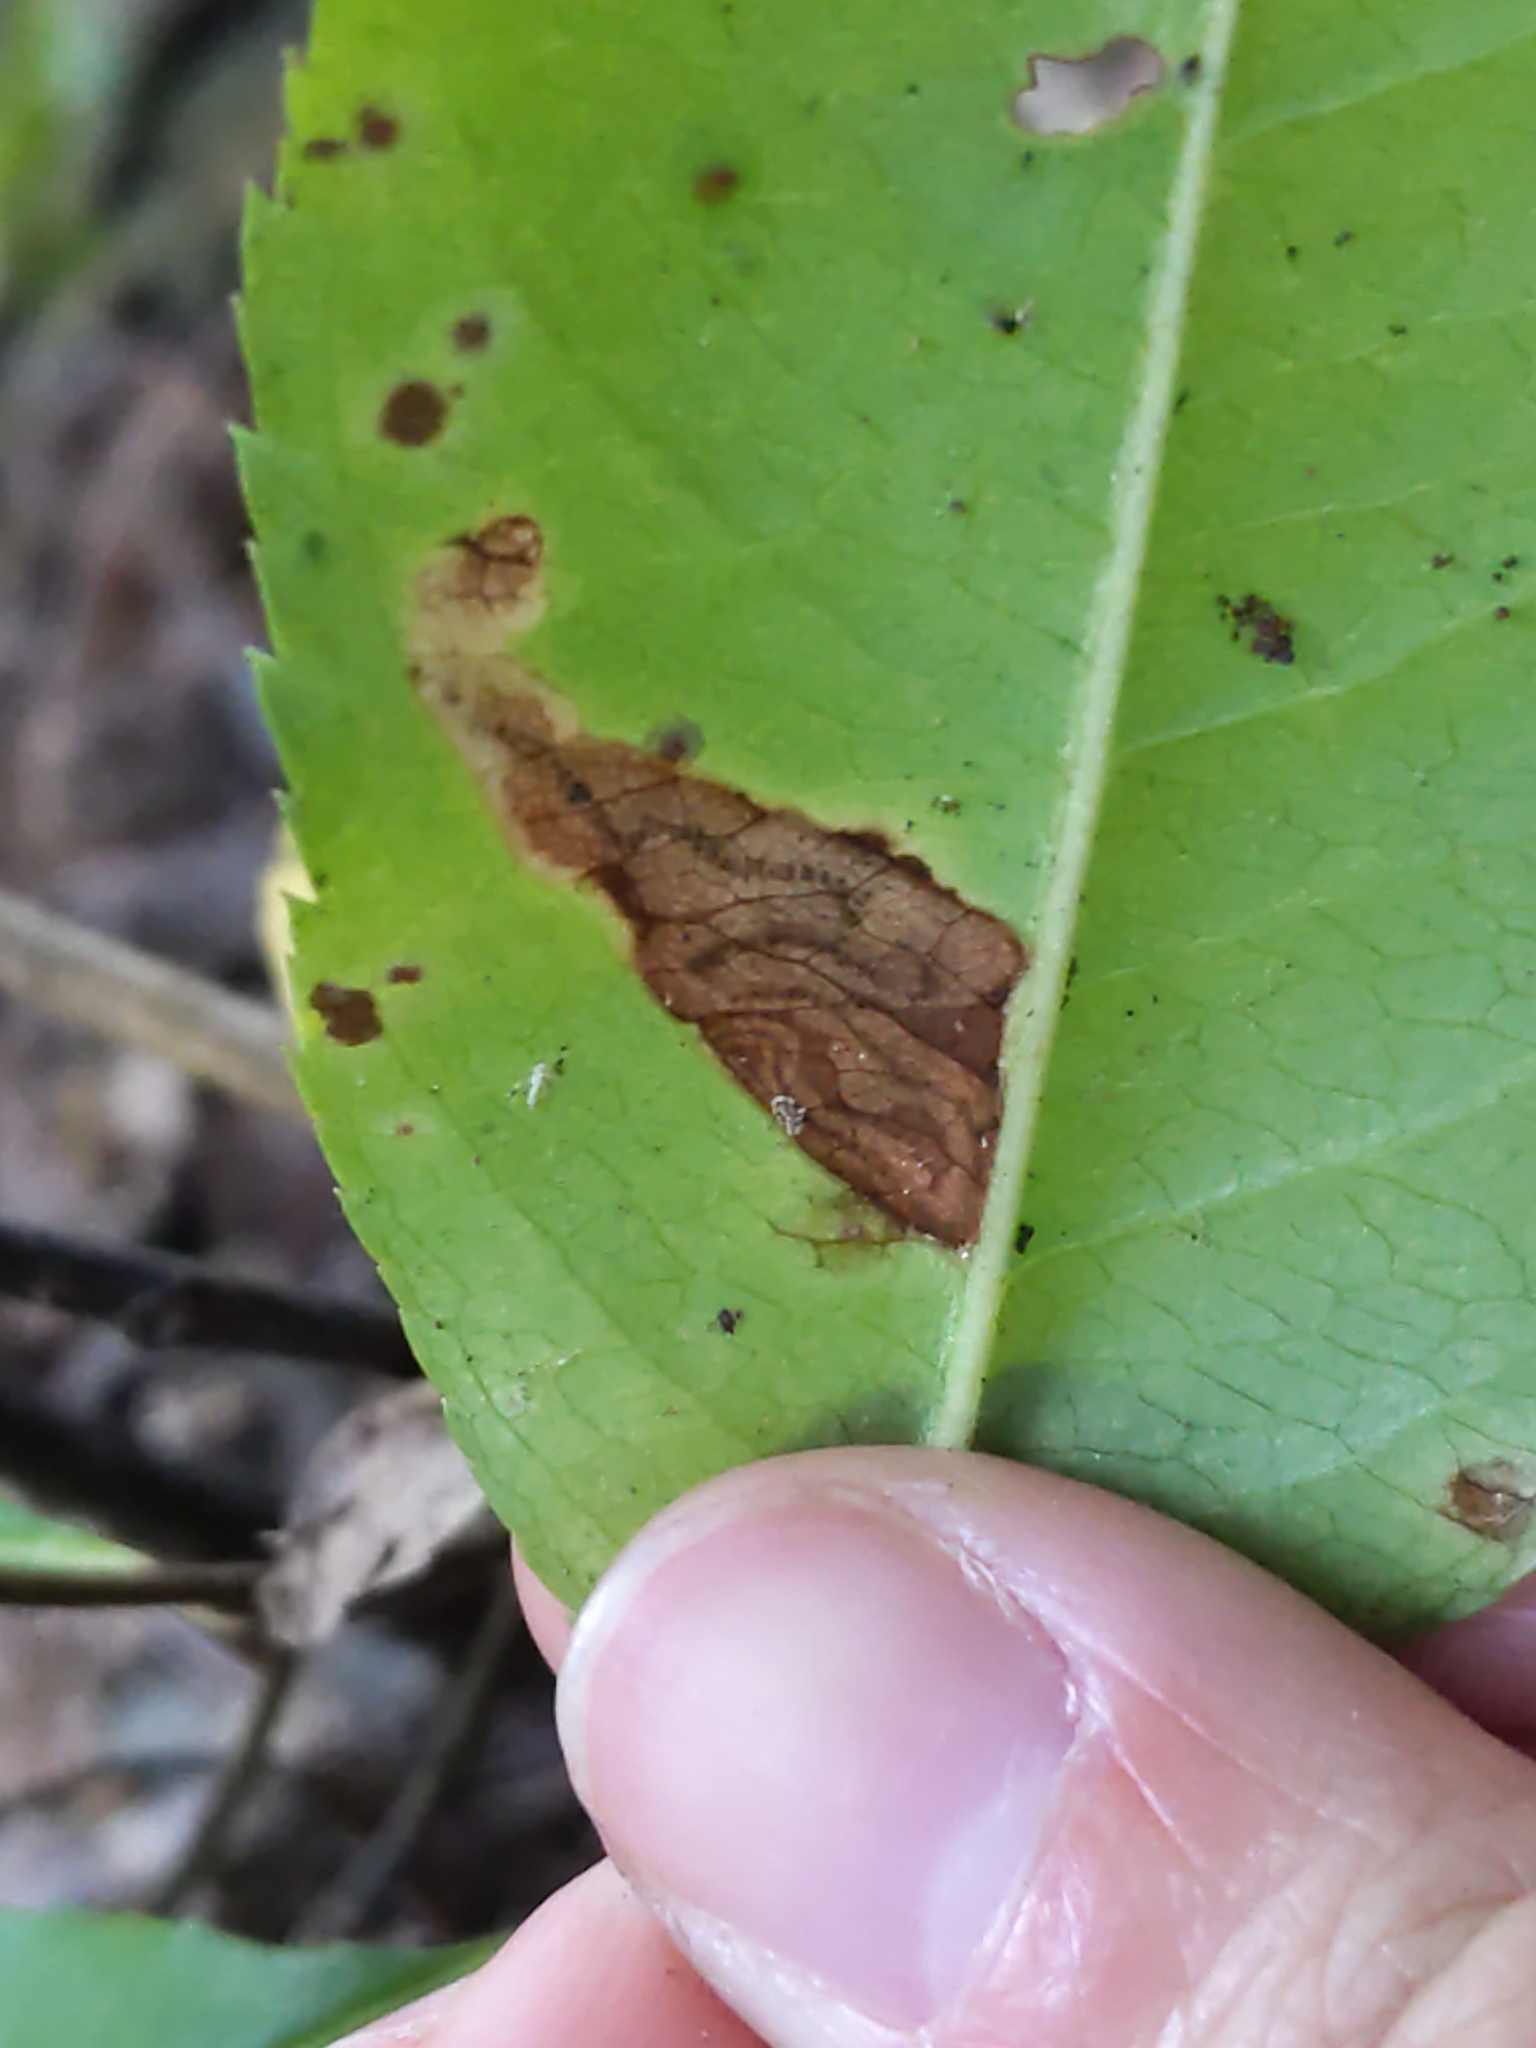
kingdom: Animalia
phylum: Arthropoda
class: Insecta
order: Lepidoptera
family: Nepticulidae
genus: Stigmella
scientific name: Stigmella
